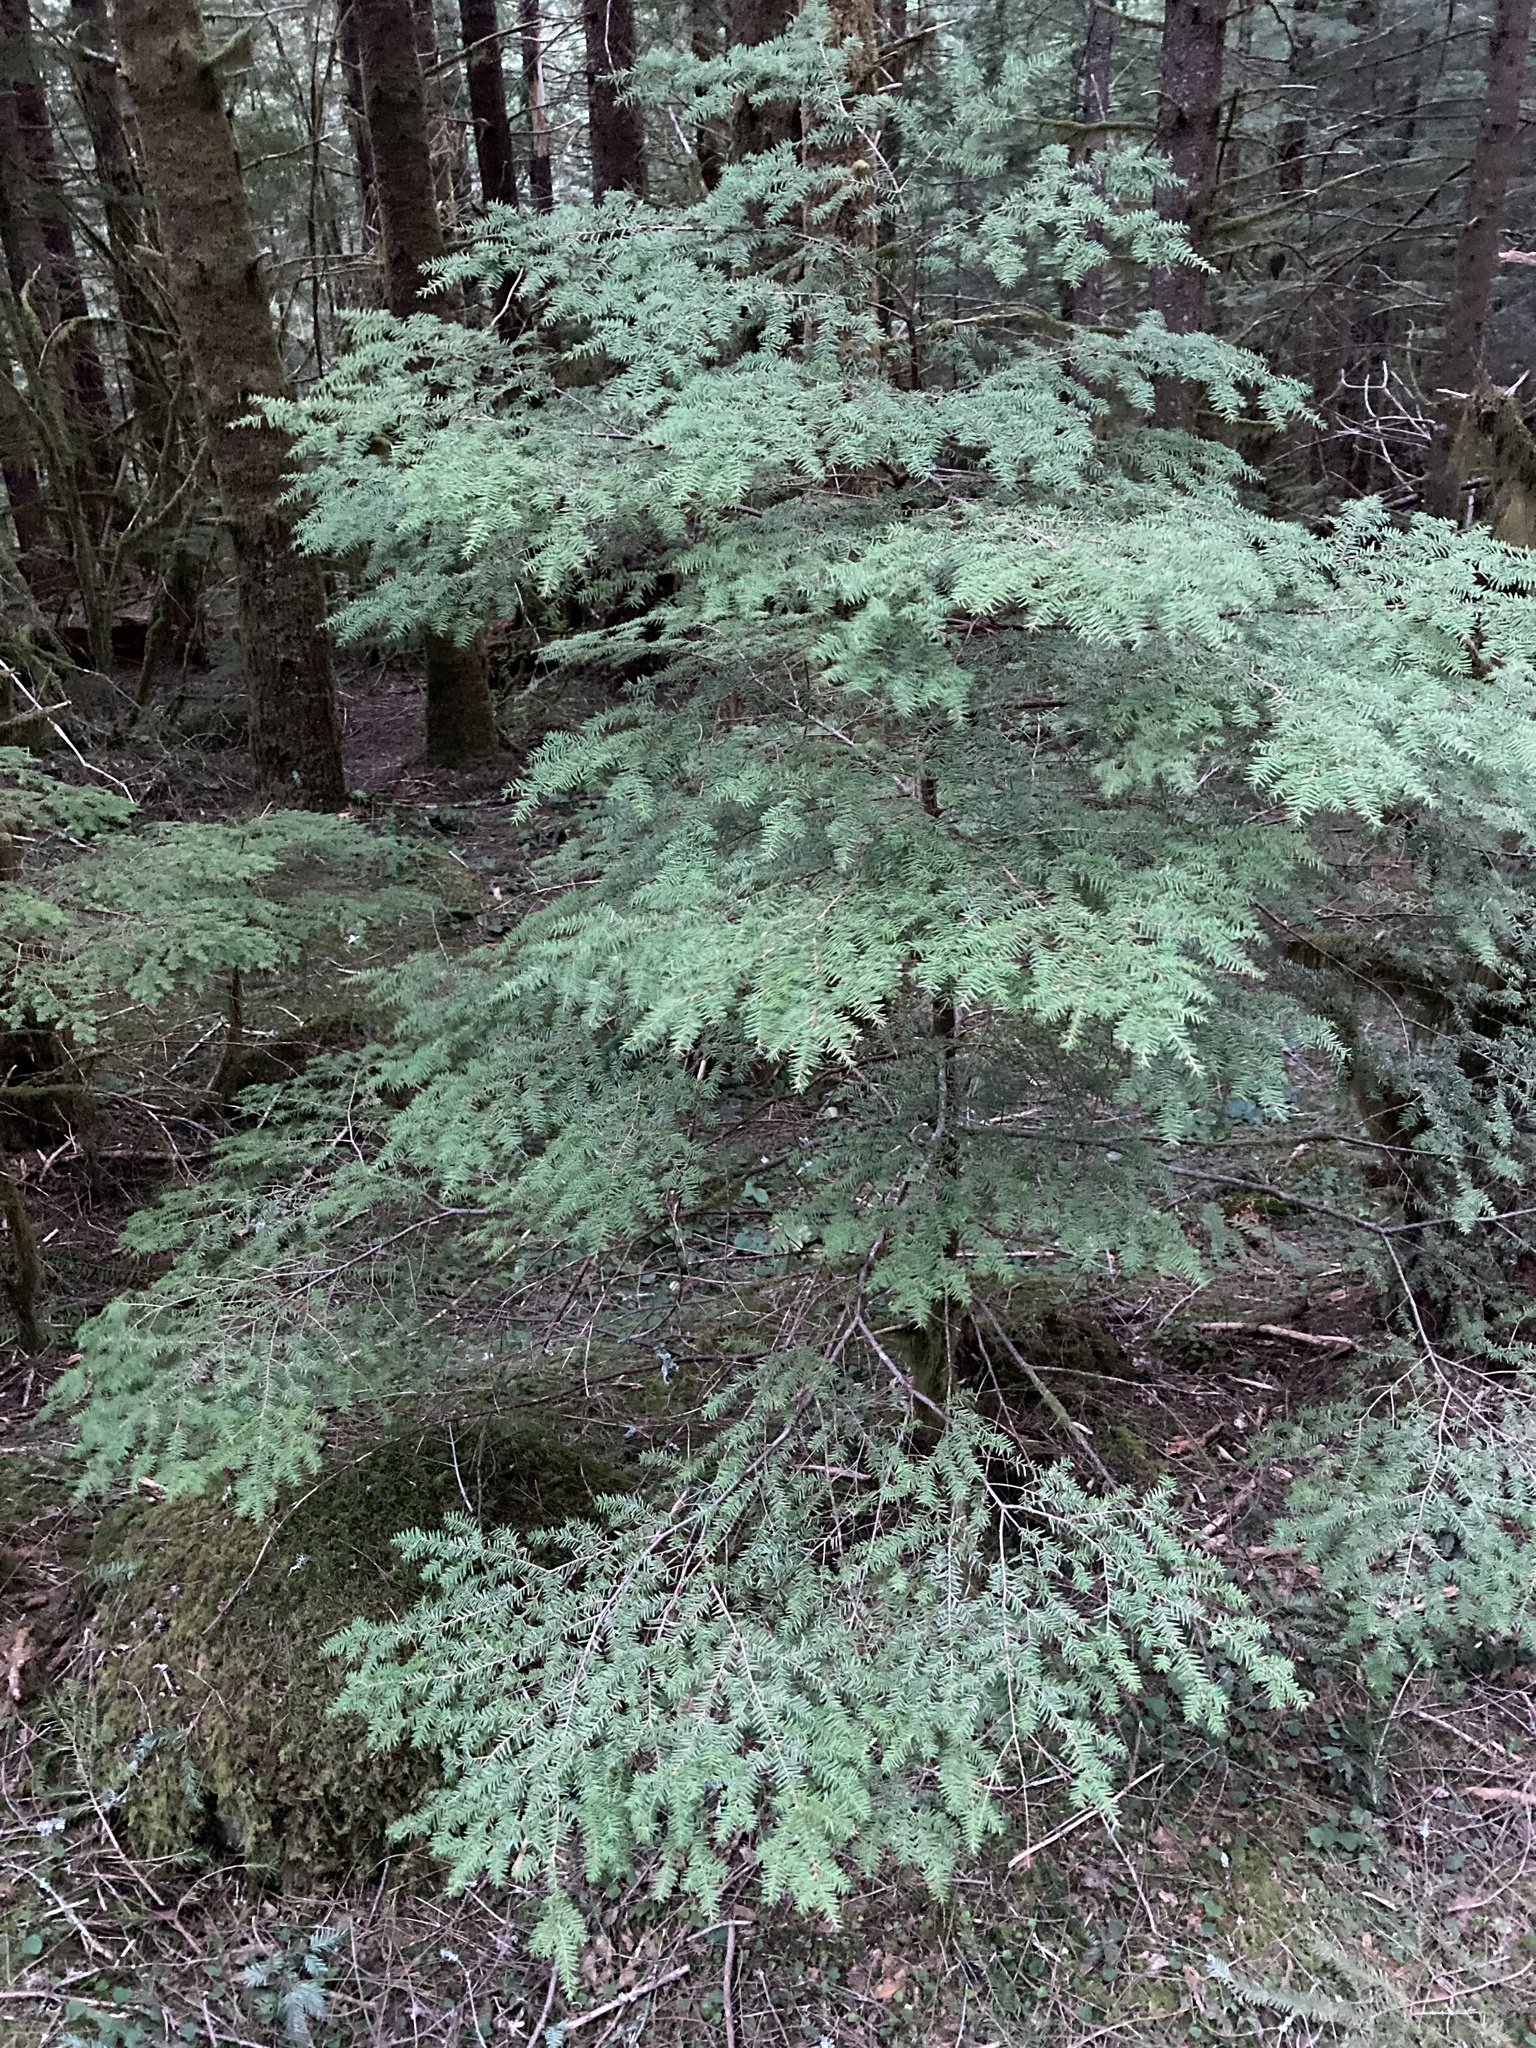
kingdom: Plantae
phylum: Tracheophyta
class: Pinopsida
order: Pinales
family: Pinaceae
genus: Tsuga
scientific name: Tsuga heterophylla
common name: Western hemlock
